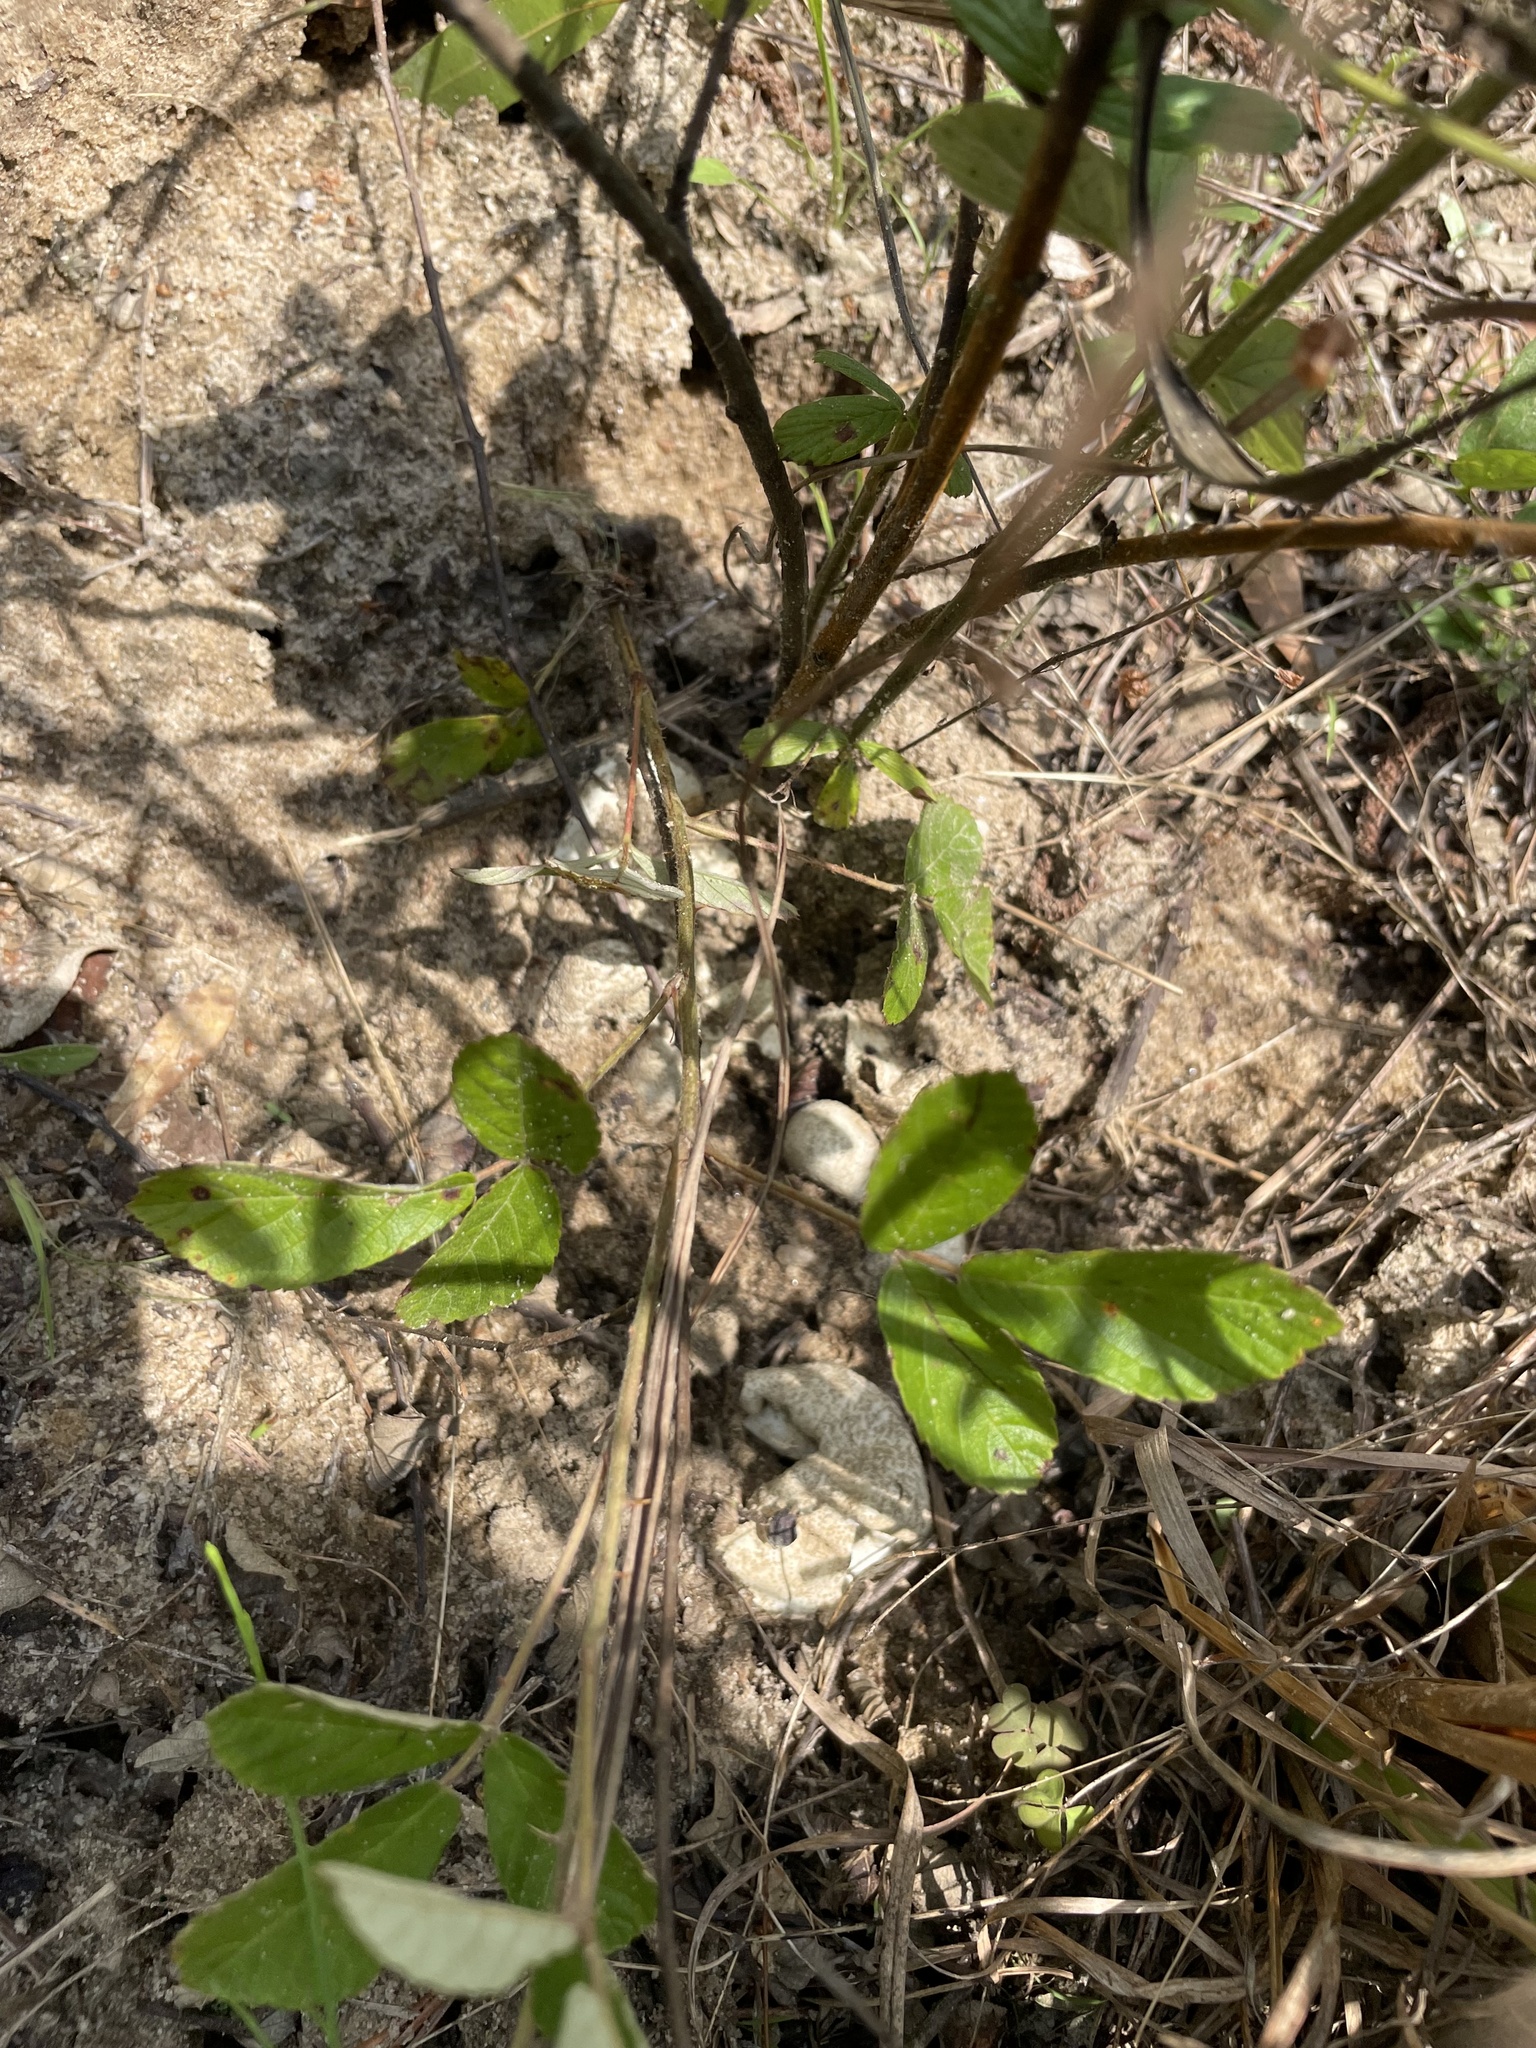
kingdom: Animalia
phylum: Chordata
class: Testudines
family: Testudinidae
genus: Gopherus
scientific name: Gopherus polyphemus
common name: Florida gopher tortoise
